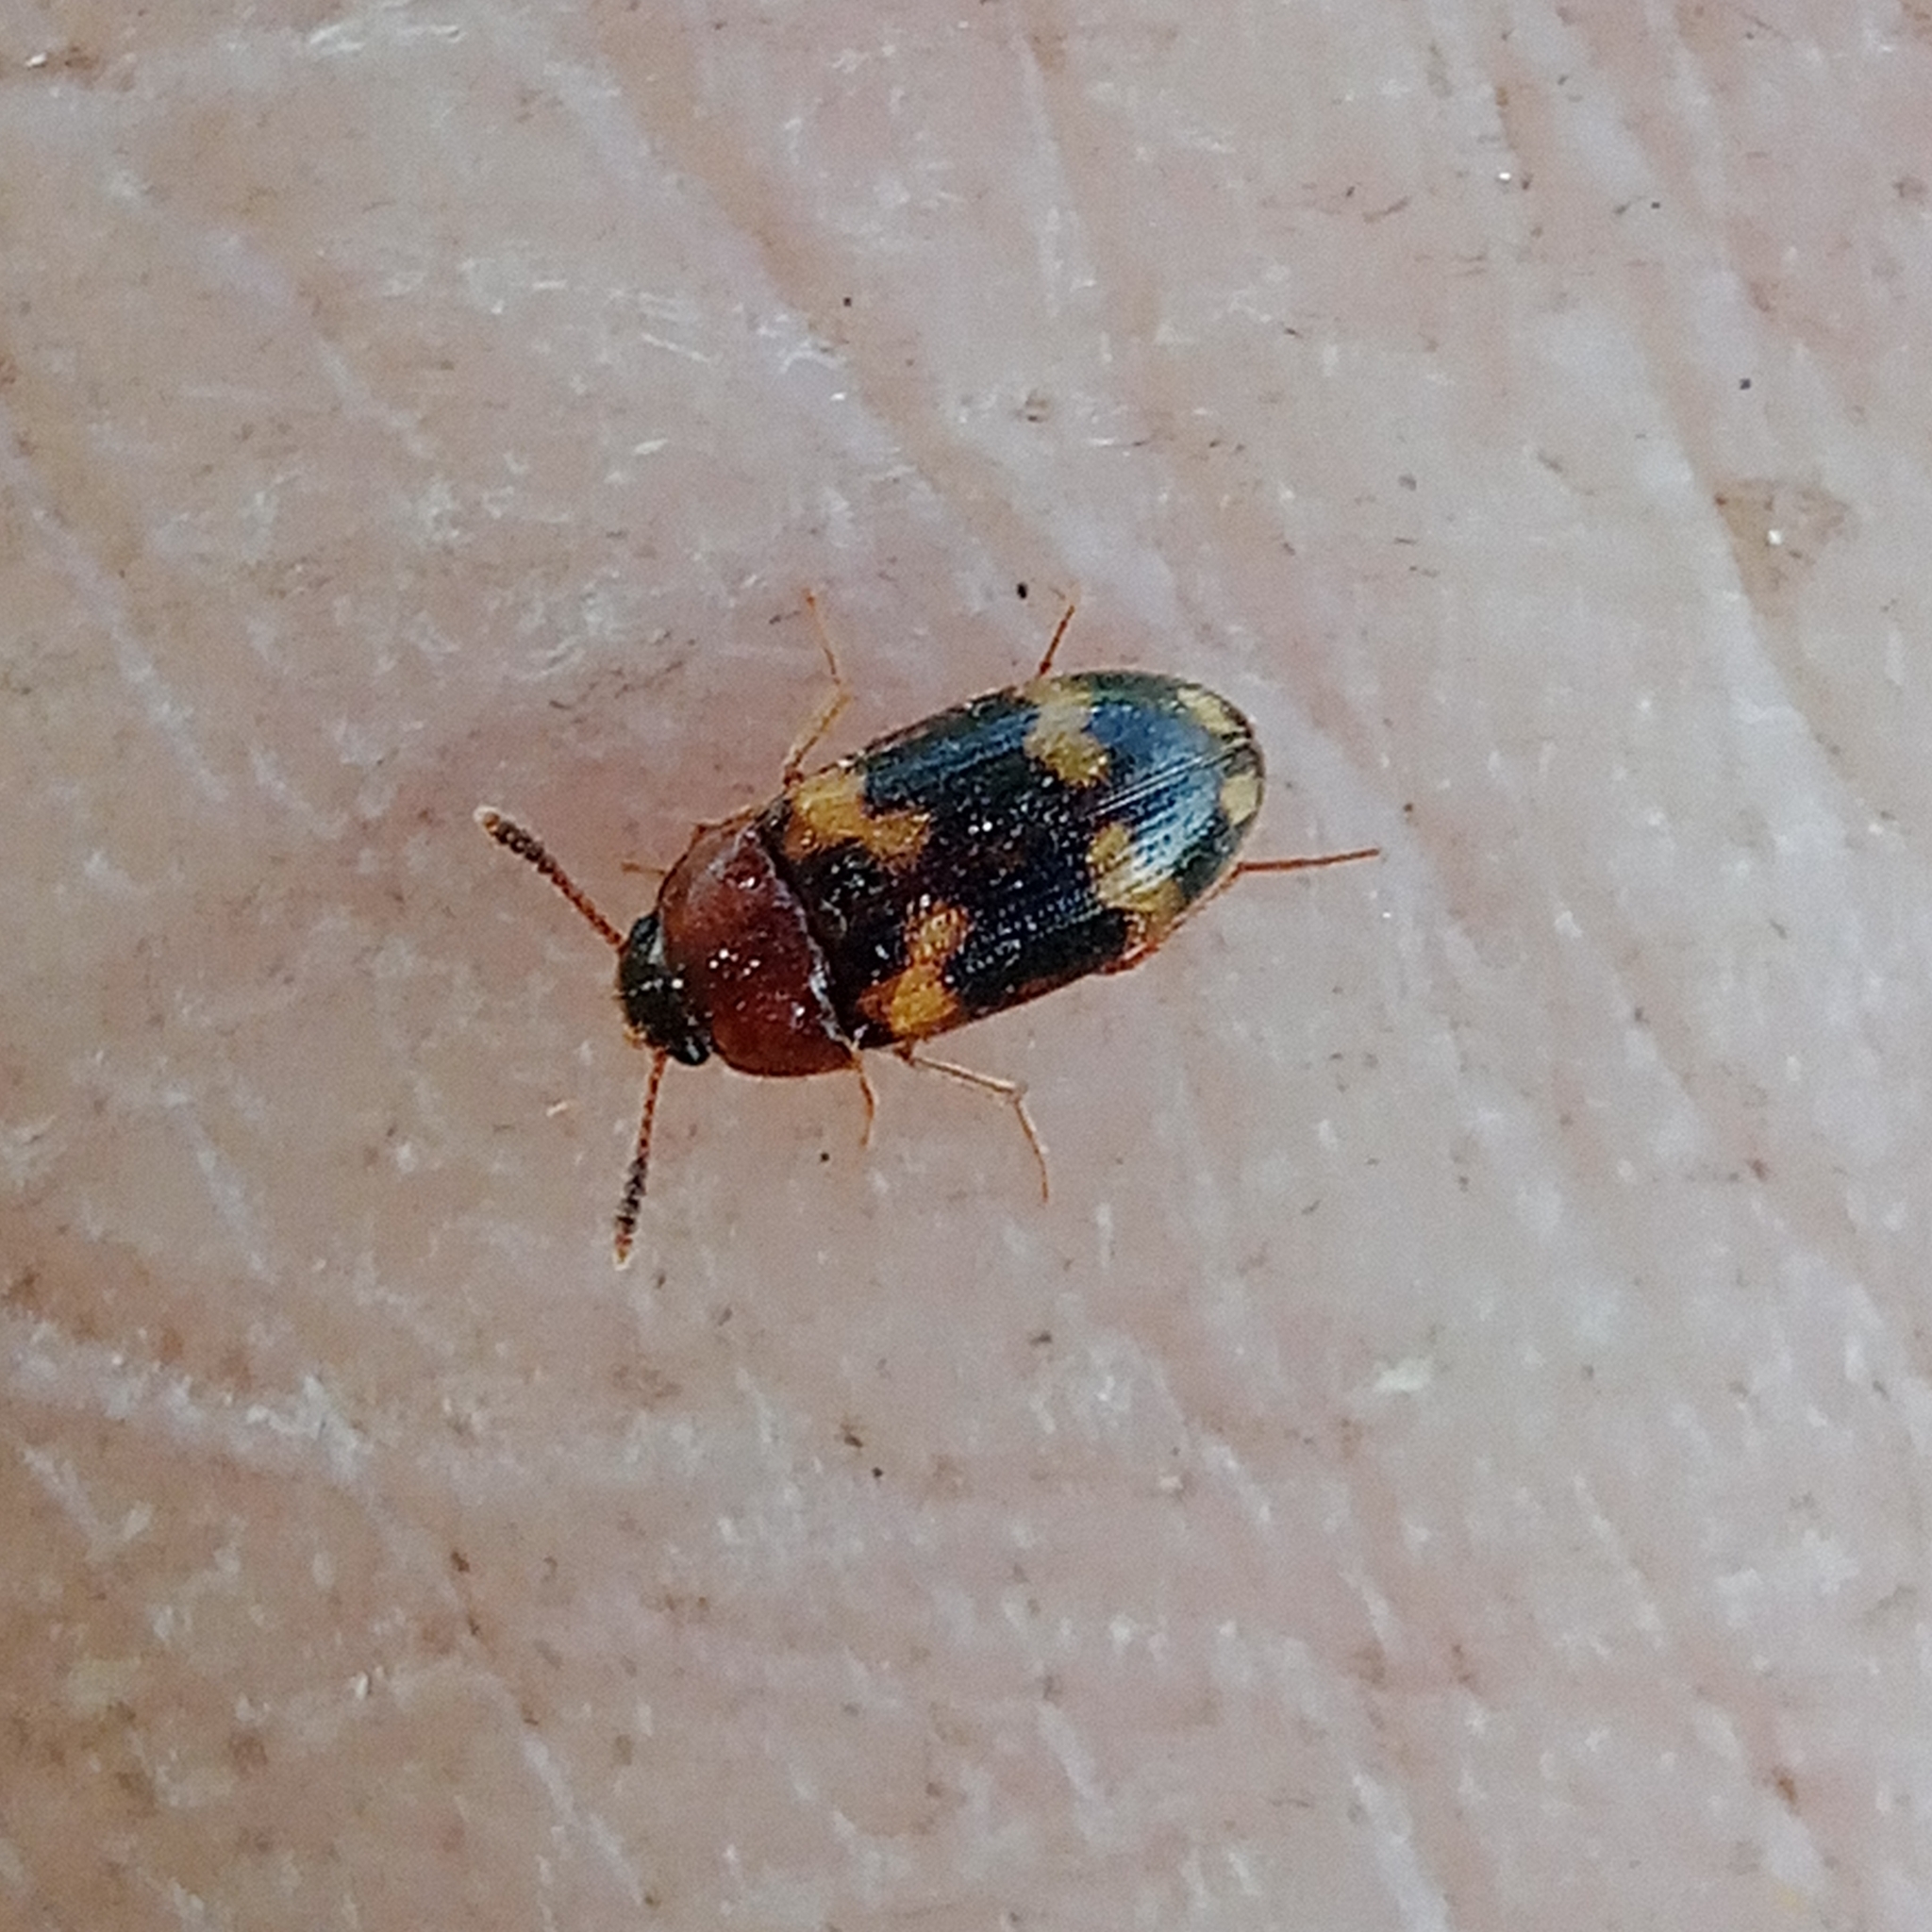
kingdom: Animalia
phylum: Arthropoda
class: Insecta
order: Coleoptera
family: Mycetophagidae
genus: Mycetophagus
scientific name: Mycetophagus piceus
